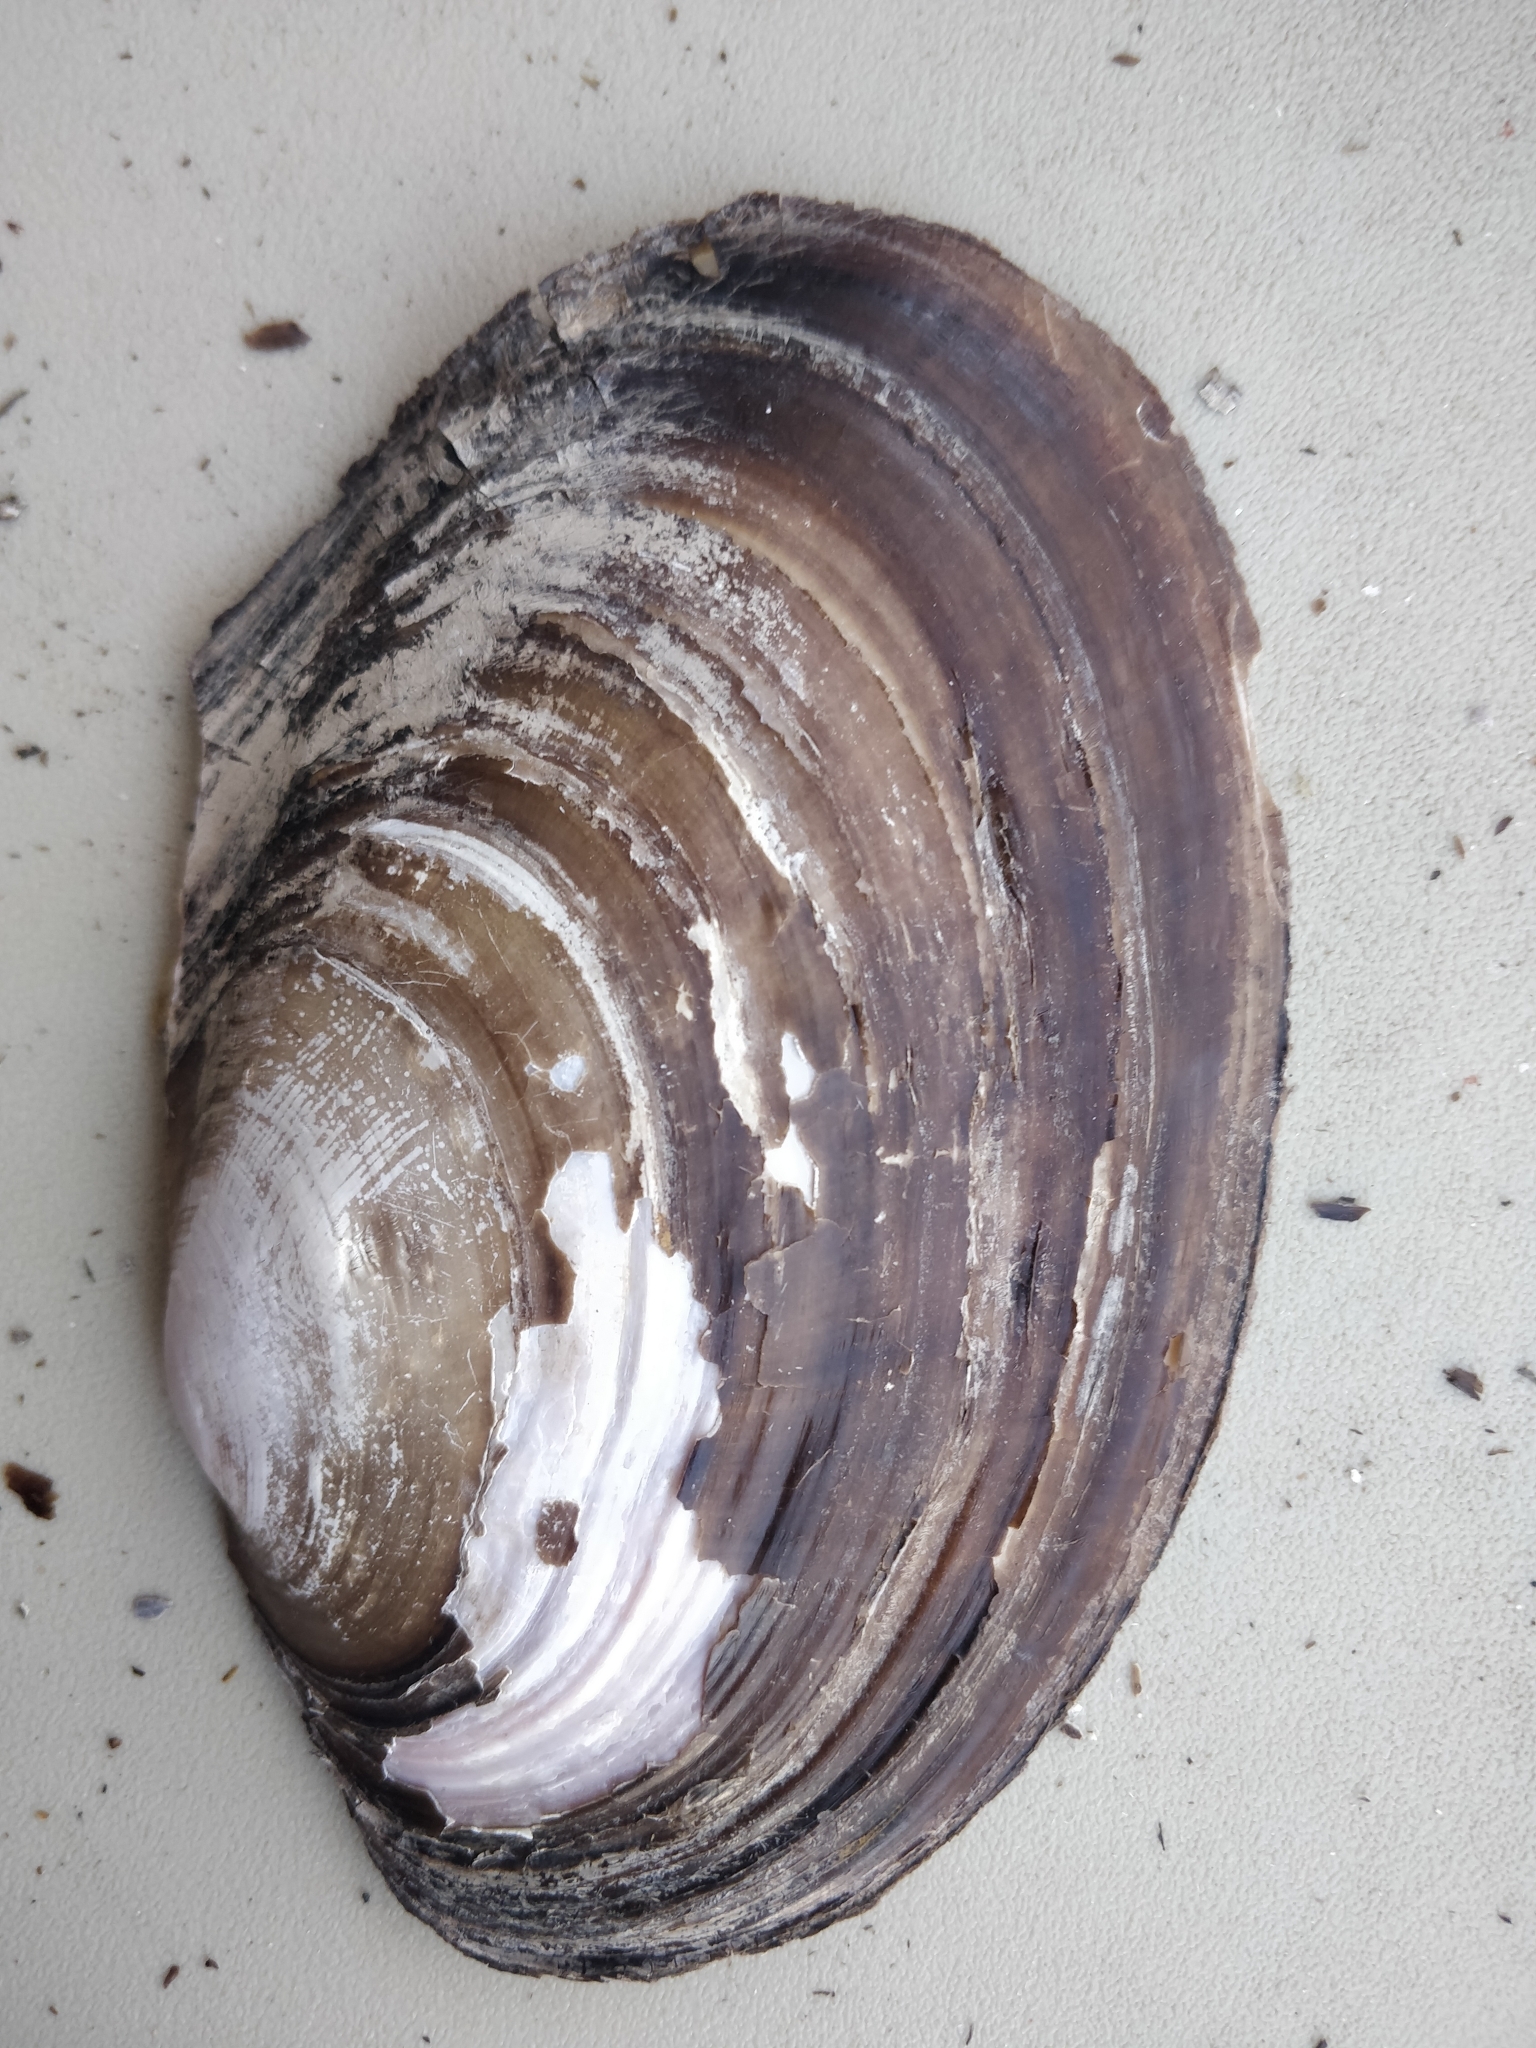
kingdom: Animalia
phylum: Mollusca
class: Bivalvia
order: Unionida
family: Unionidae
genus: Potamilus
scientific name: Potamilus ohiensis
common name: Pink papershell
